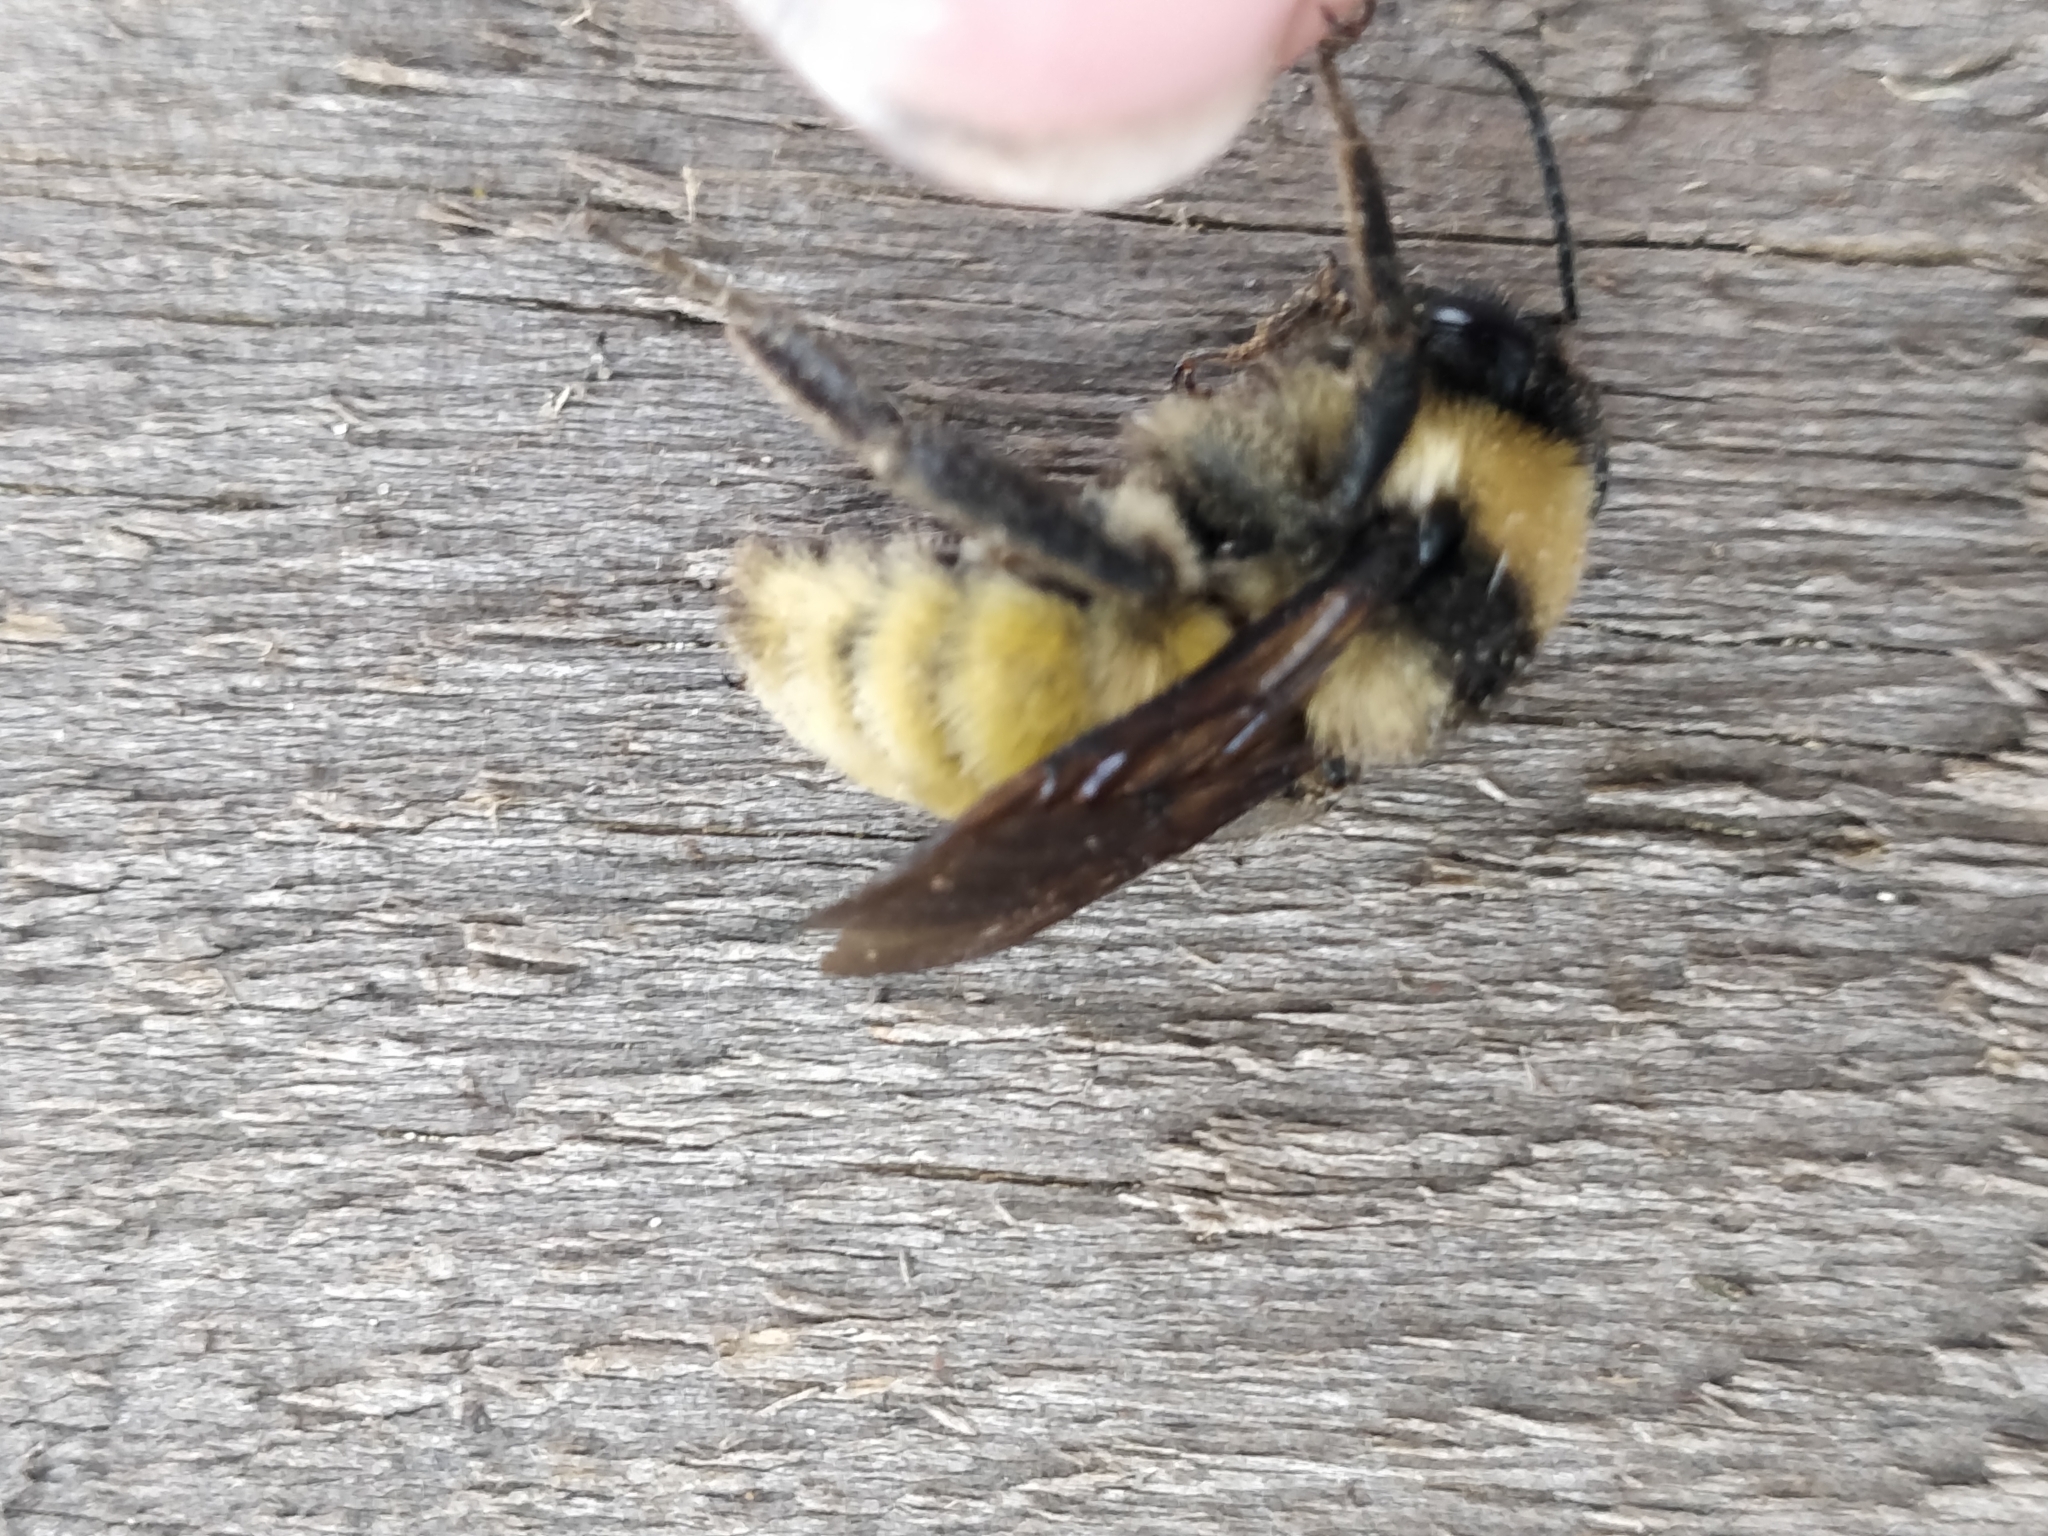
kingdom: Animalia
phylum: Arthropoda
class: Insecta
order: Hymenoptera
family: Apidae
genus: Bombus
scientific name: Bombus pensylvanicus
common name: Bumble bee
